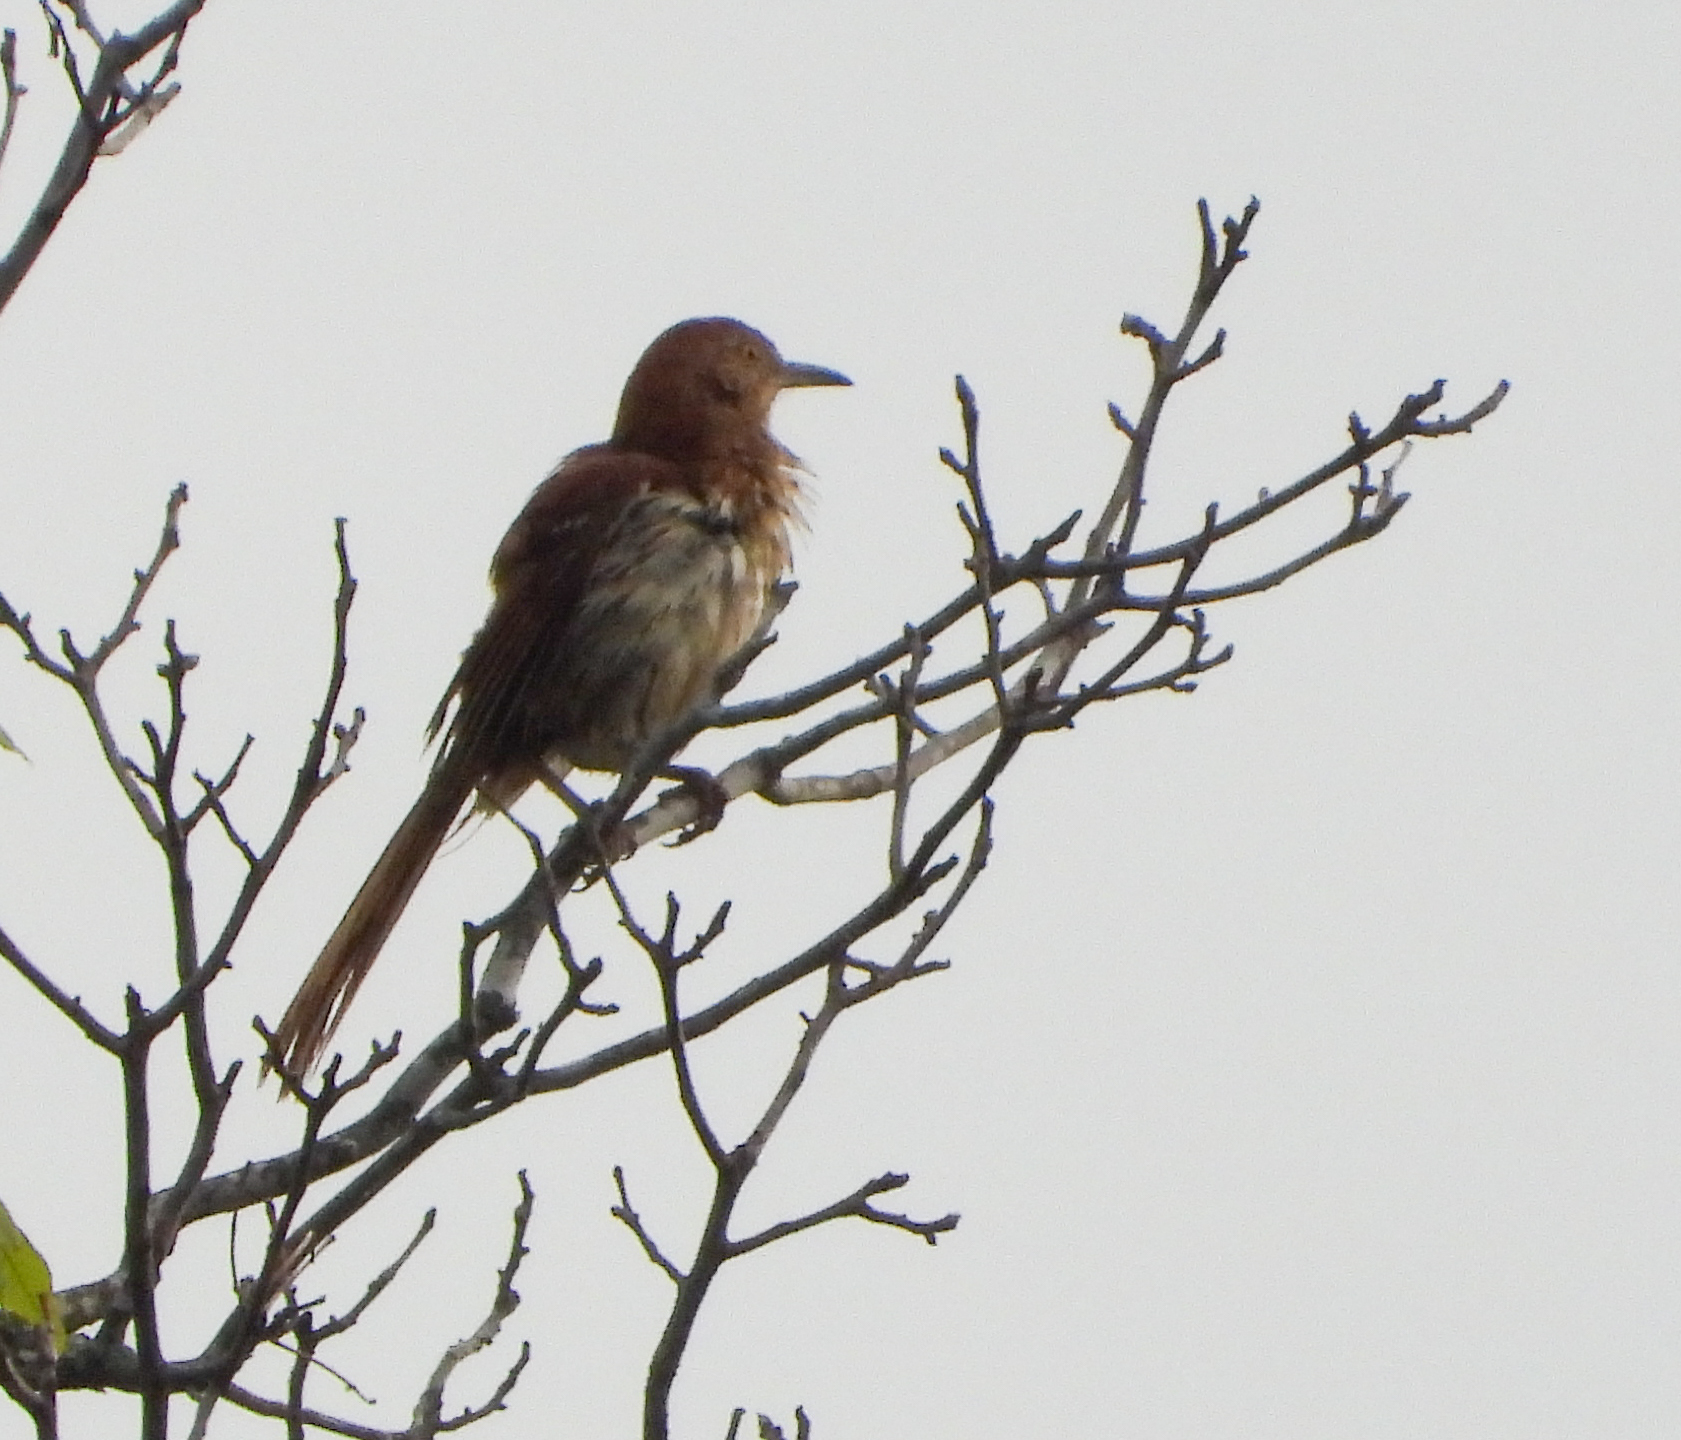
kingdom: Animalia
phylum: Chordata
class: Aves
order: Passeriformes
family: Mimidae
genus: Toxostoma
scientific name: Toxostoma rufum
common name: Brown thrasher
